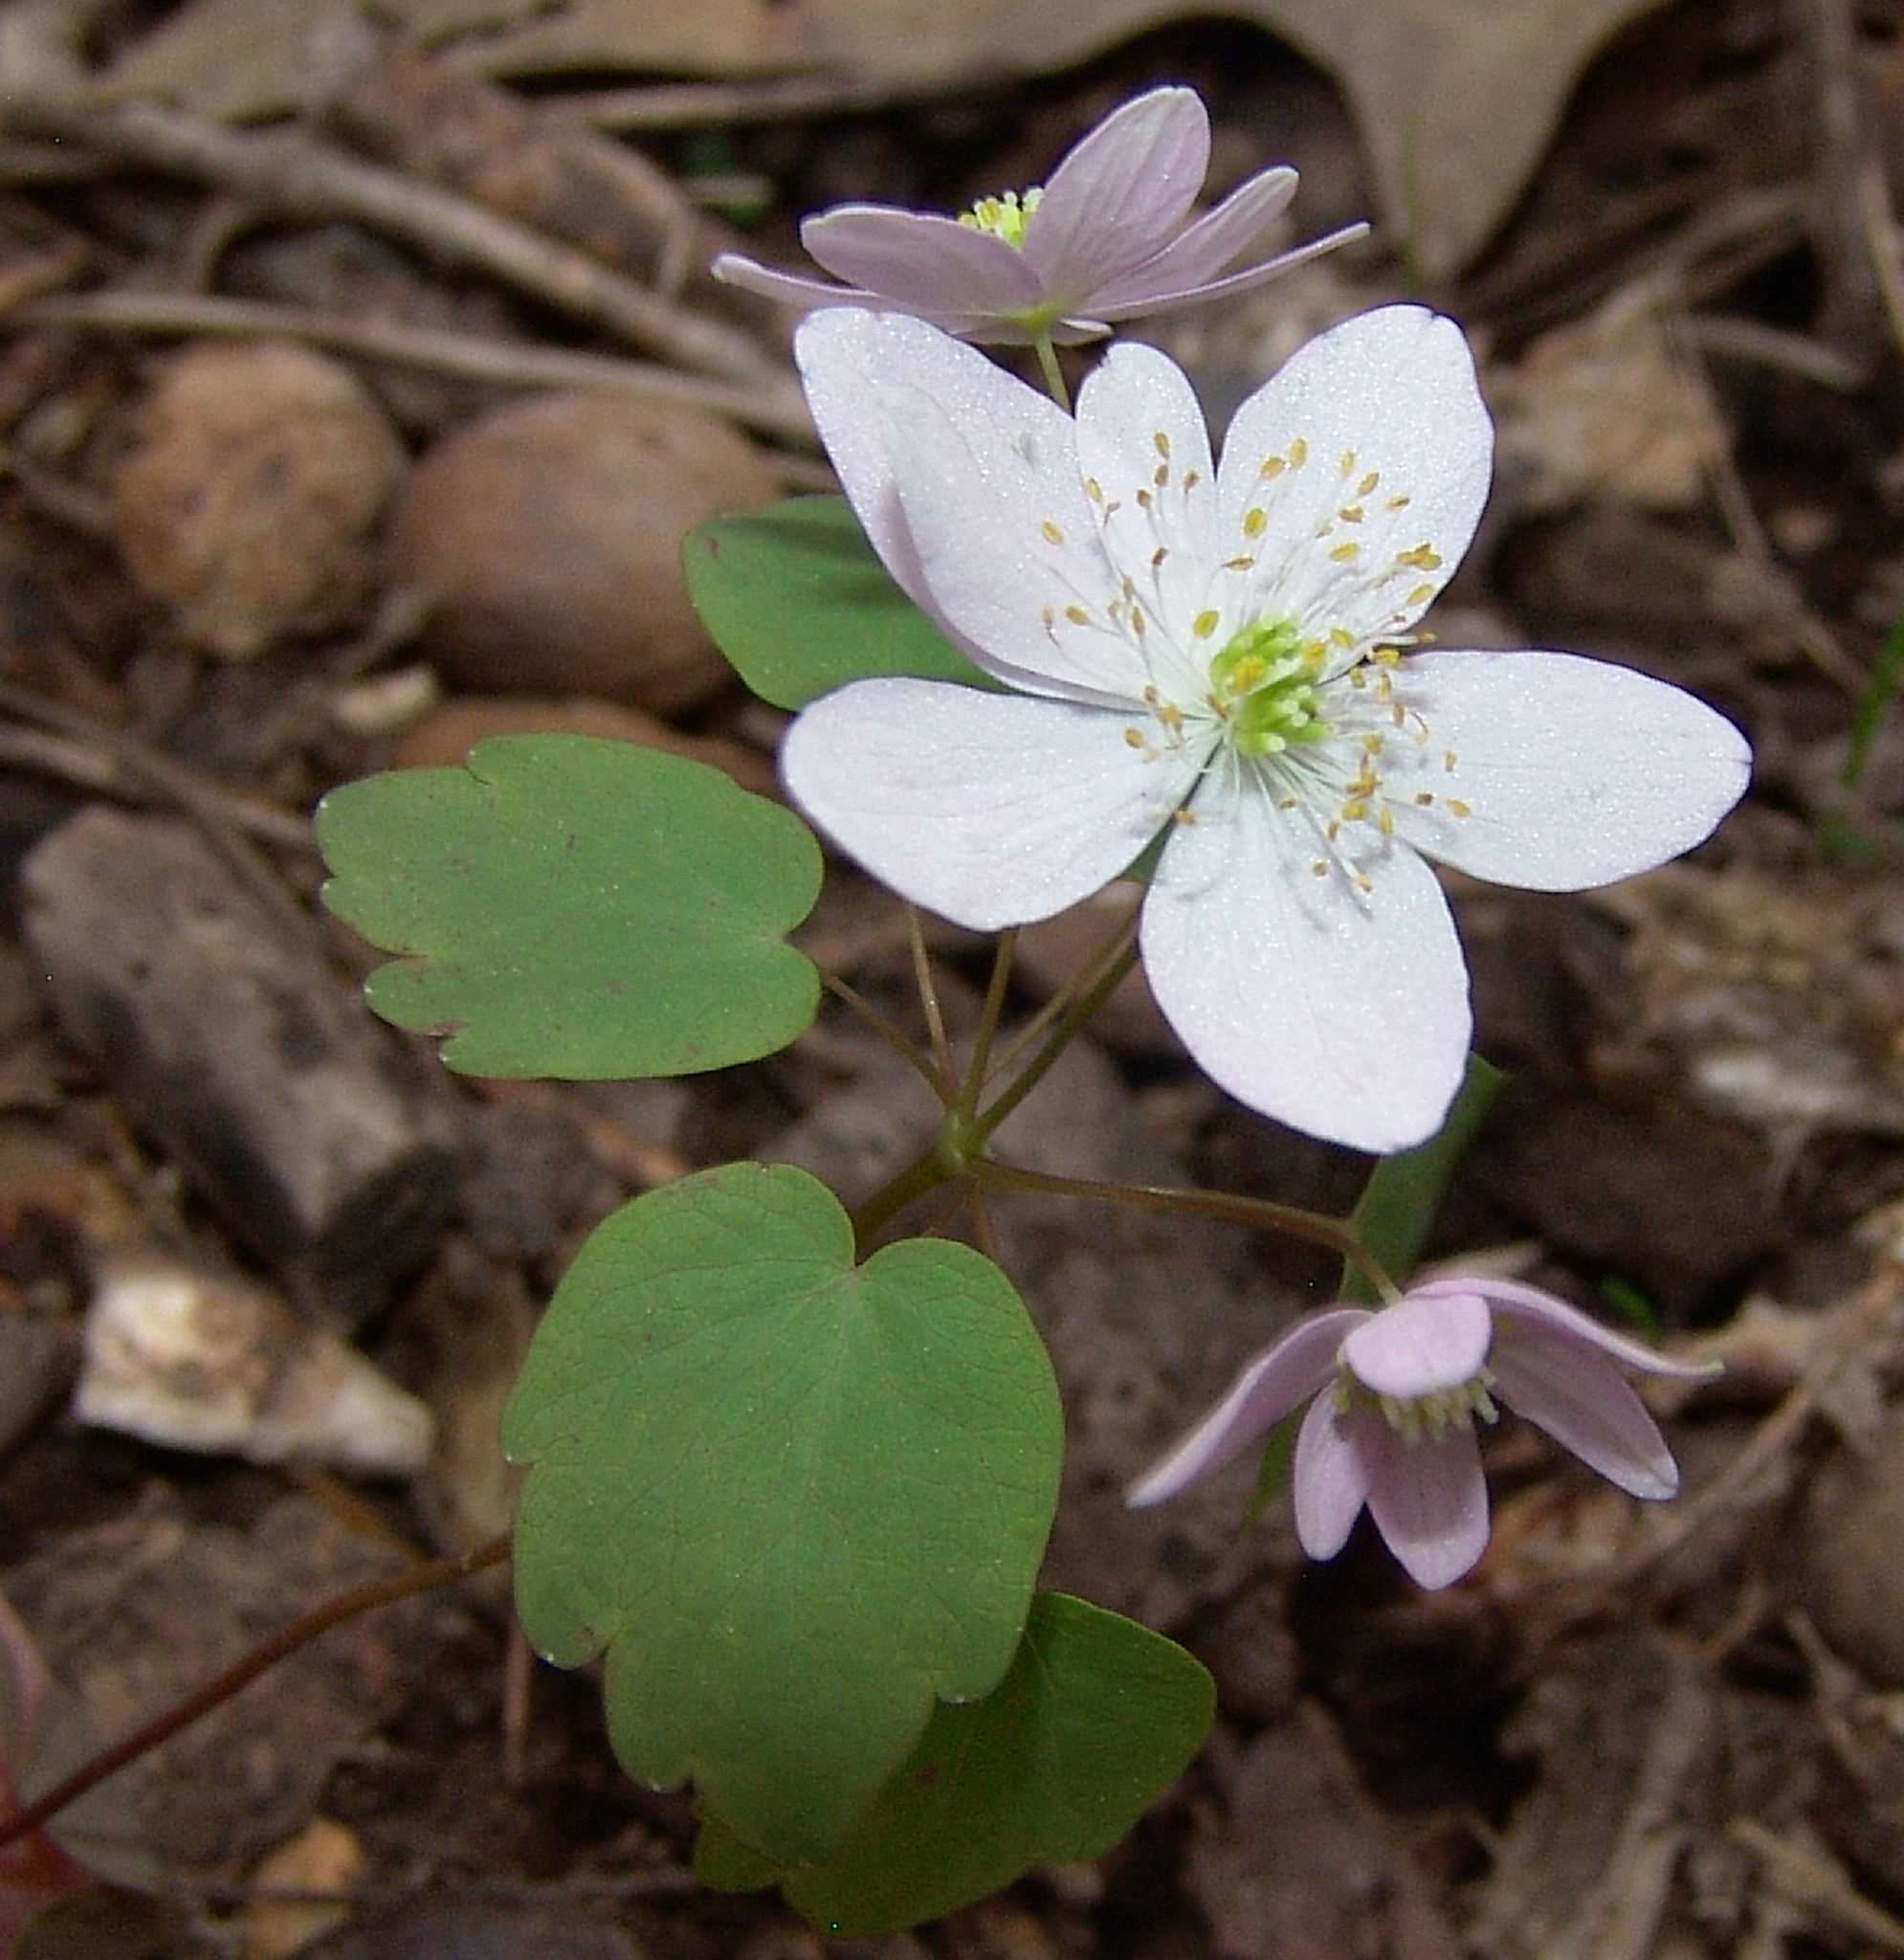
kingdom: Plantae
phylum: Tracheophyta
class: Magnoliopsida
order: Ranunculales
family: Ranunculaceae
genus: Thalictrum
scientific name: Thalictrum thalictroides
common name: Rue-anemone
